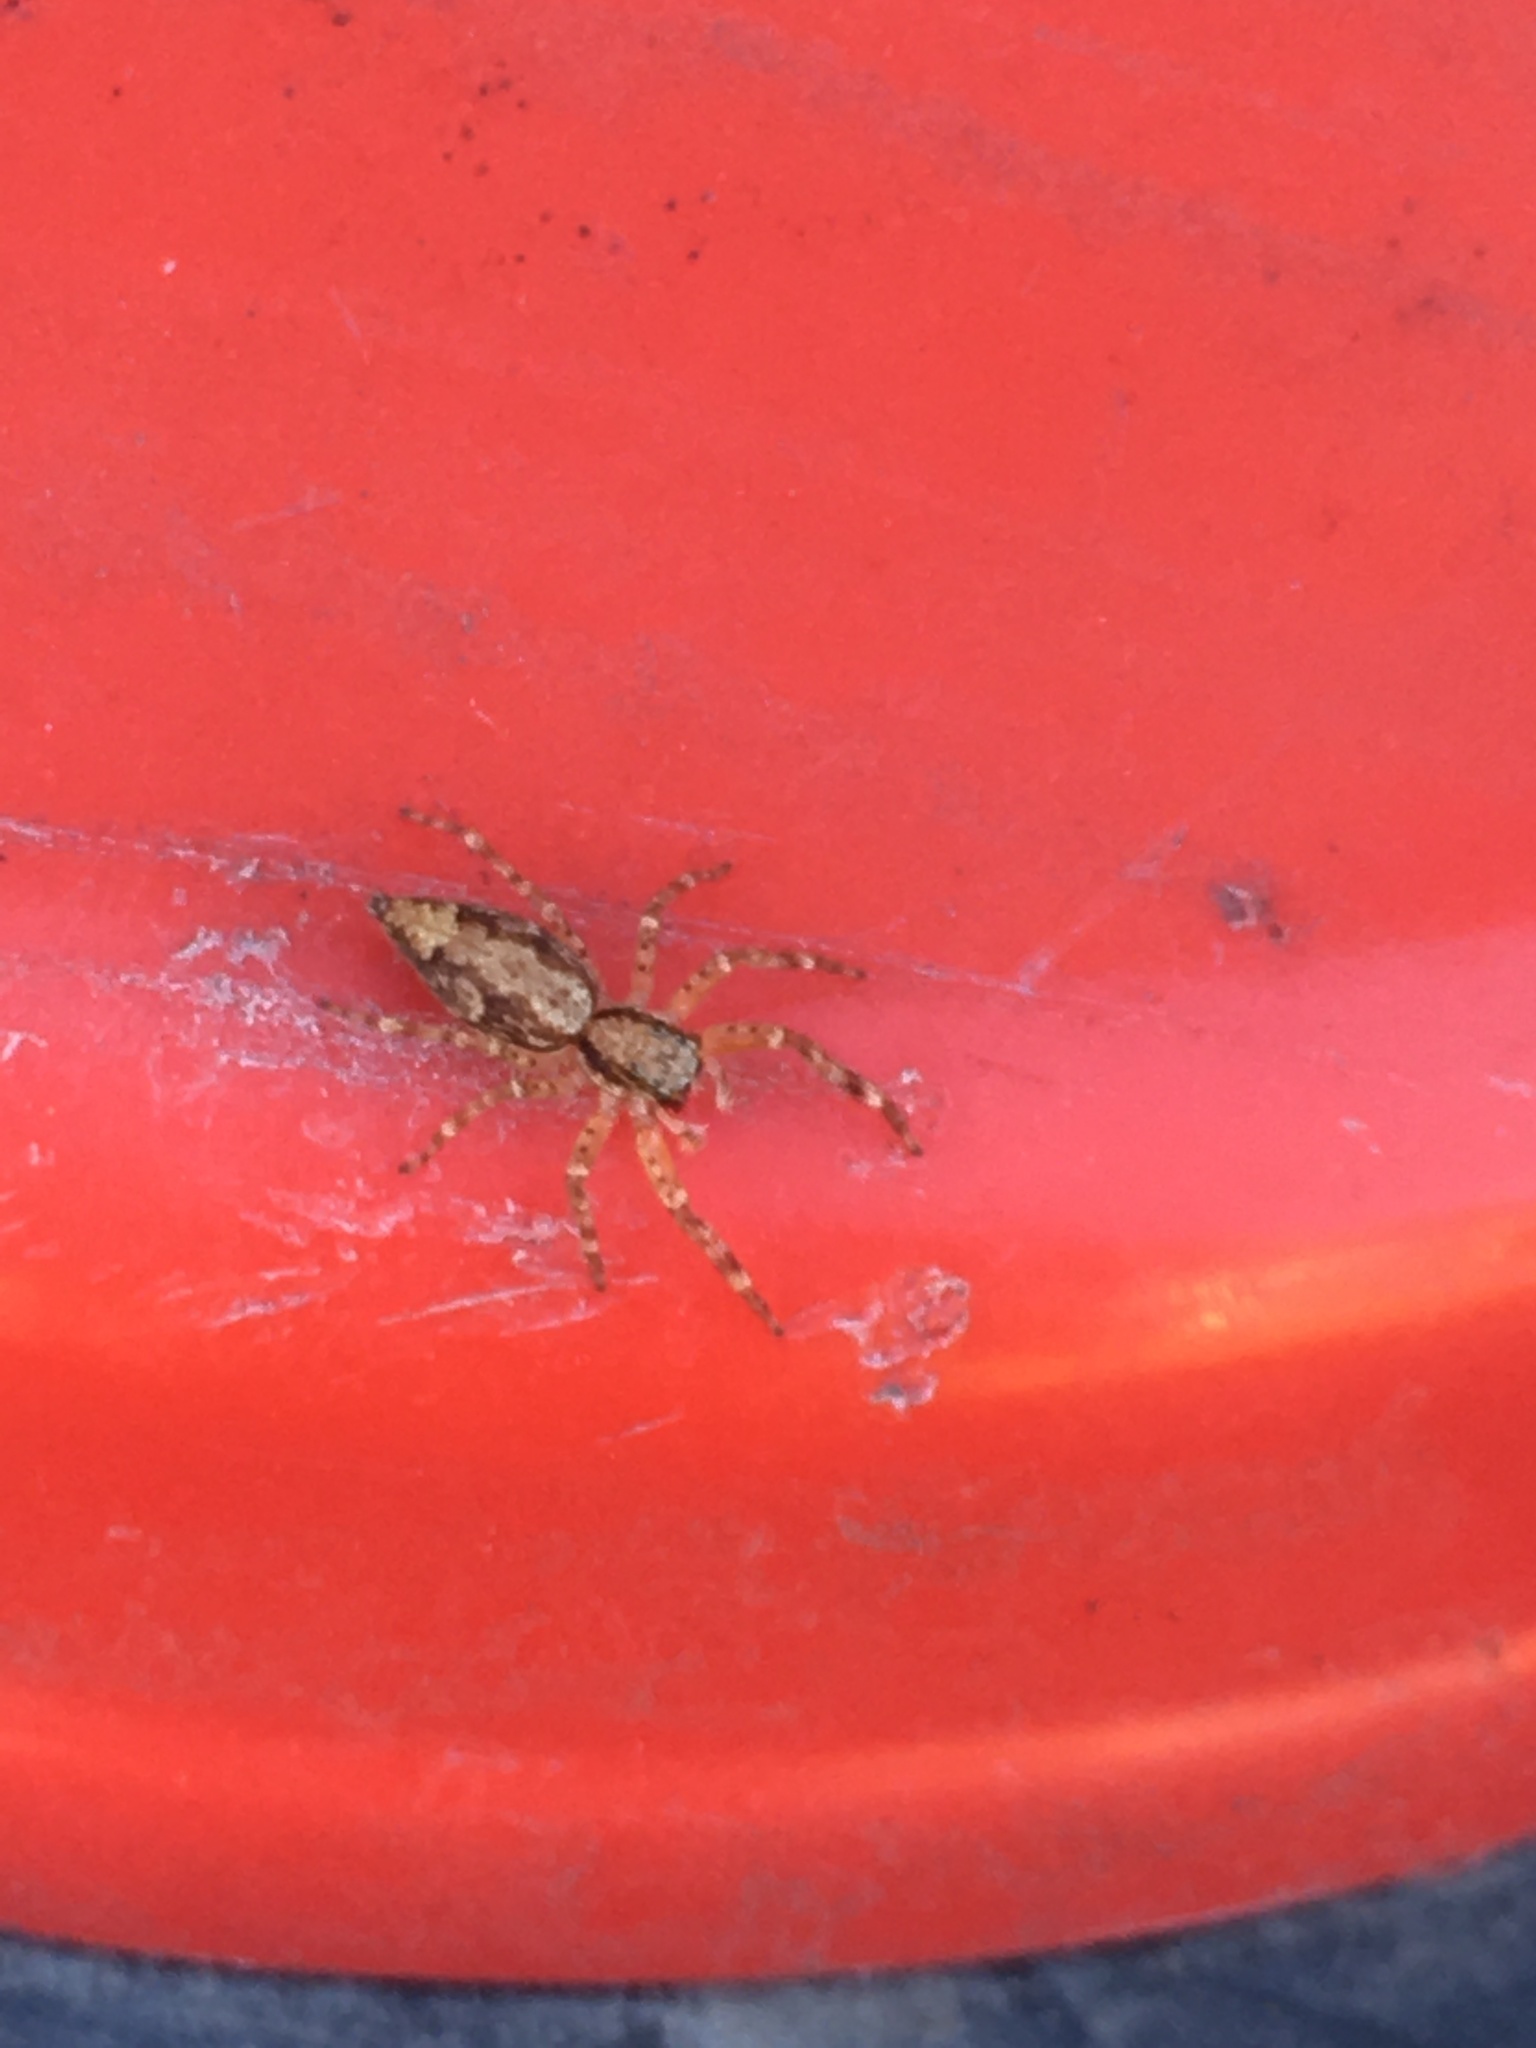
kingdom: Animalia
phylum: Arthropoda
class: Arachnida
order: Araneae
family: Salticidae
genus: Helpis
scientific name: Helpis minitabunda
